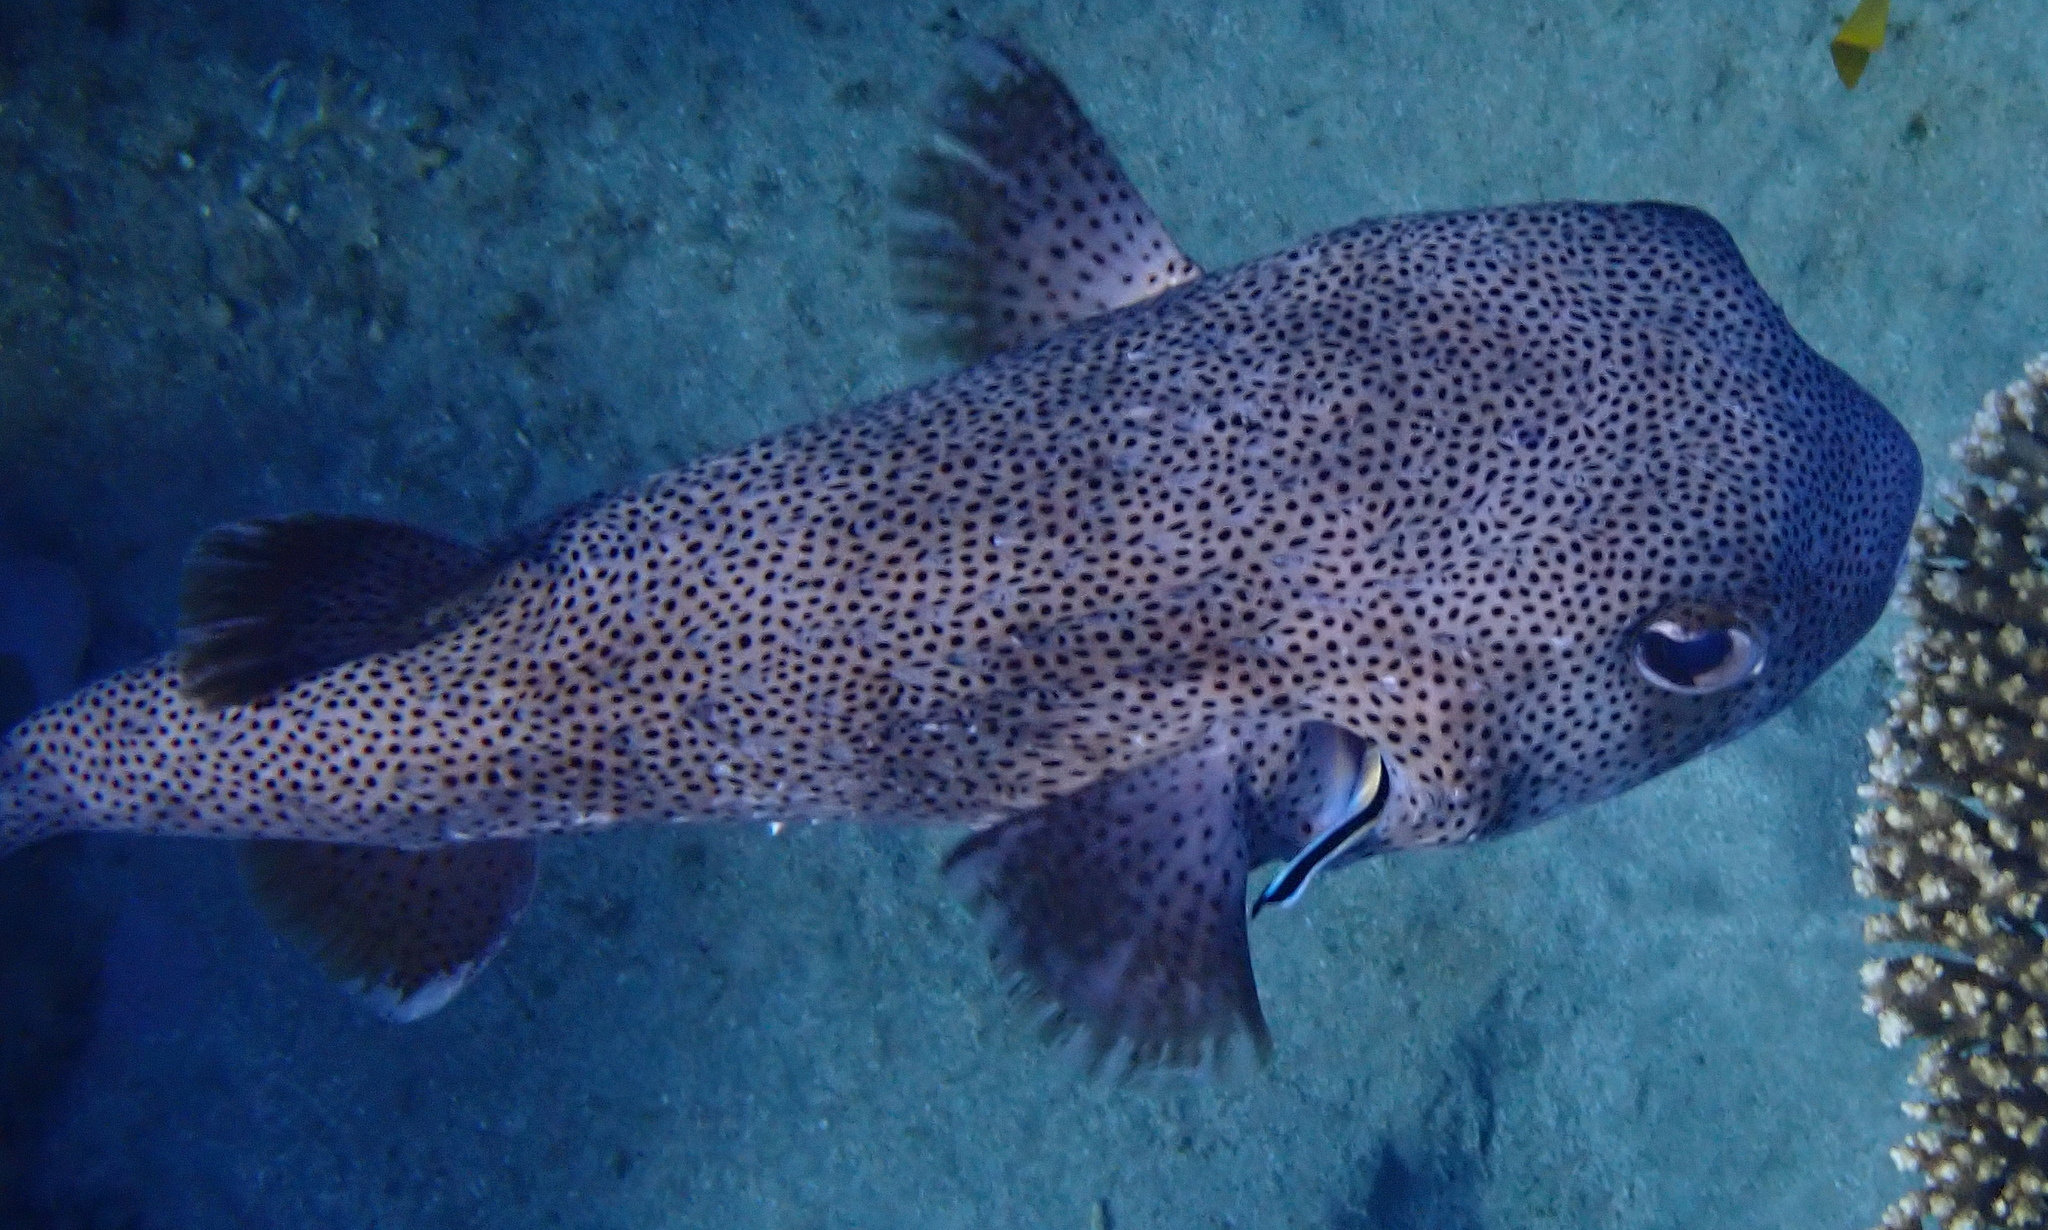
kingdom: Animalia
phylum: Chordata
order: Tetraodontiformes
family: Diodontidae
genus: Diodon
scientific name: Diodon hystrix
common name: Giant porcupinefish
